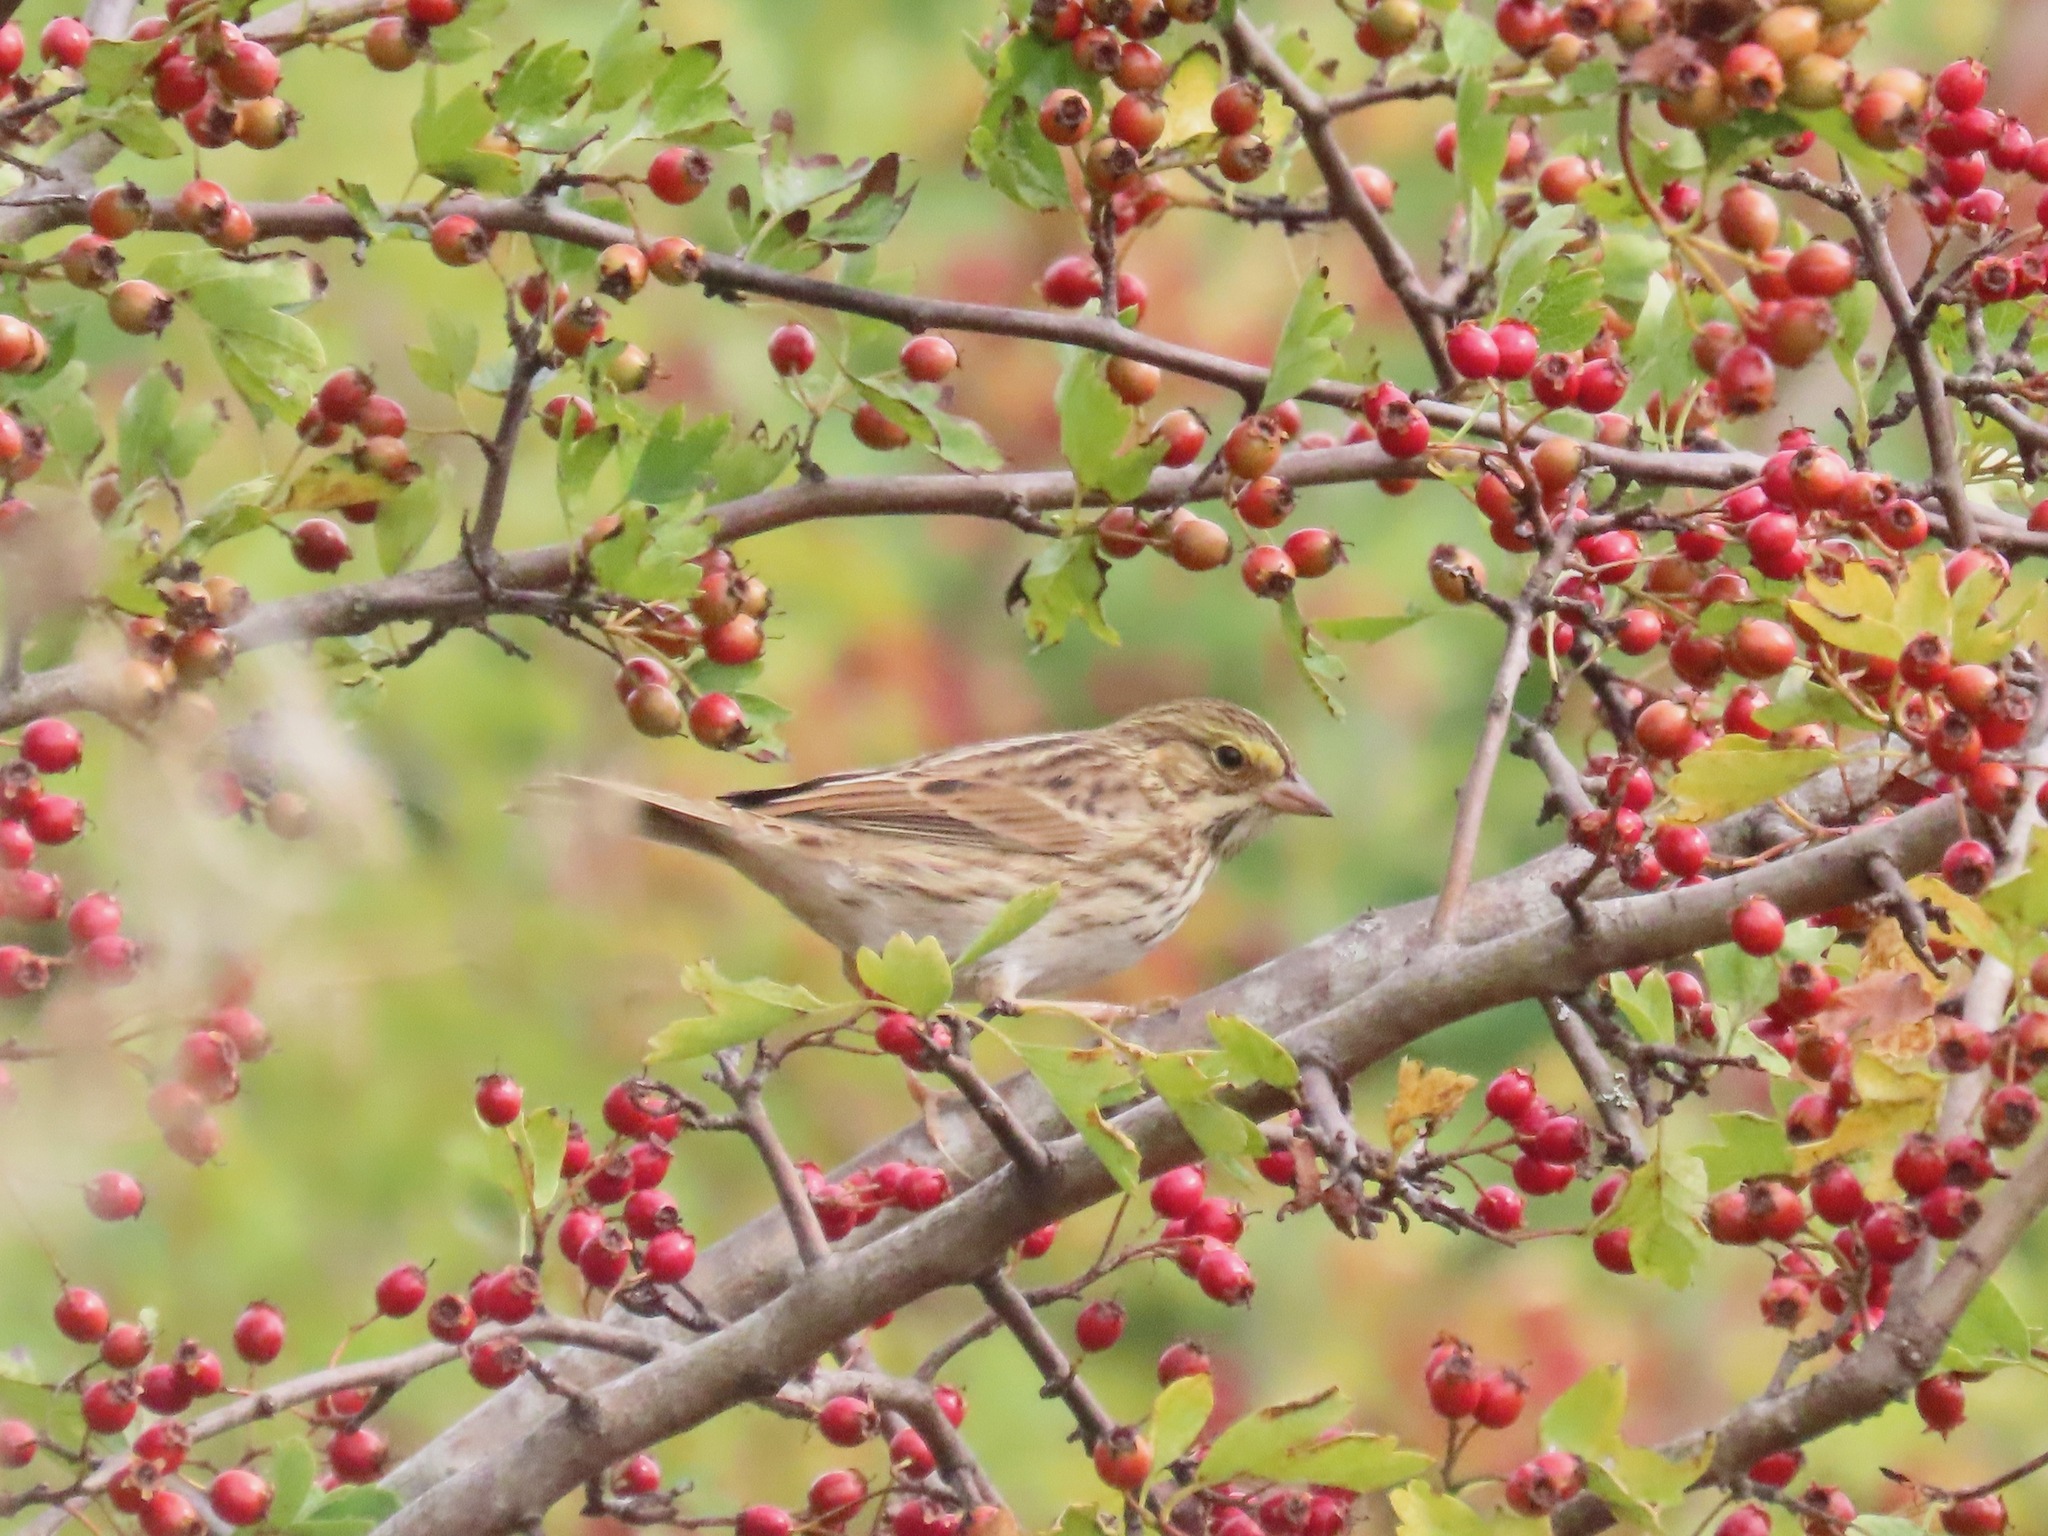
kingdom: Animalia
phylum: Chordata
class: Aves
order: Passeriformes
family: Passerellidae
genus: Passerculus
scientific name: Passerculus sandwichensis
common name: Savannah sparrow
